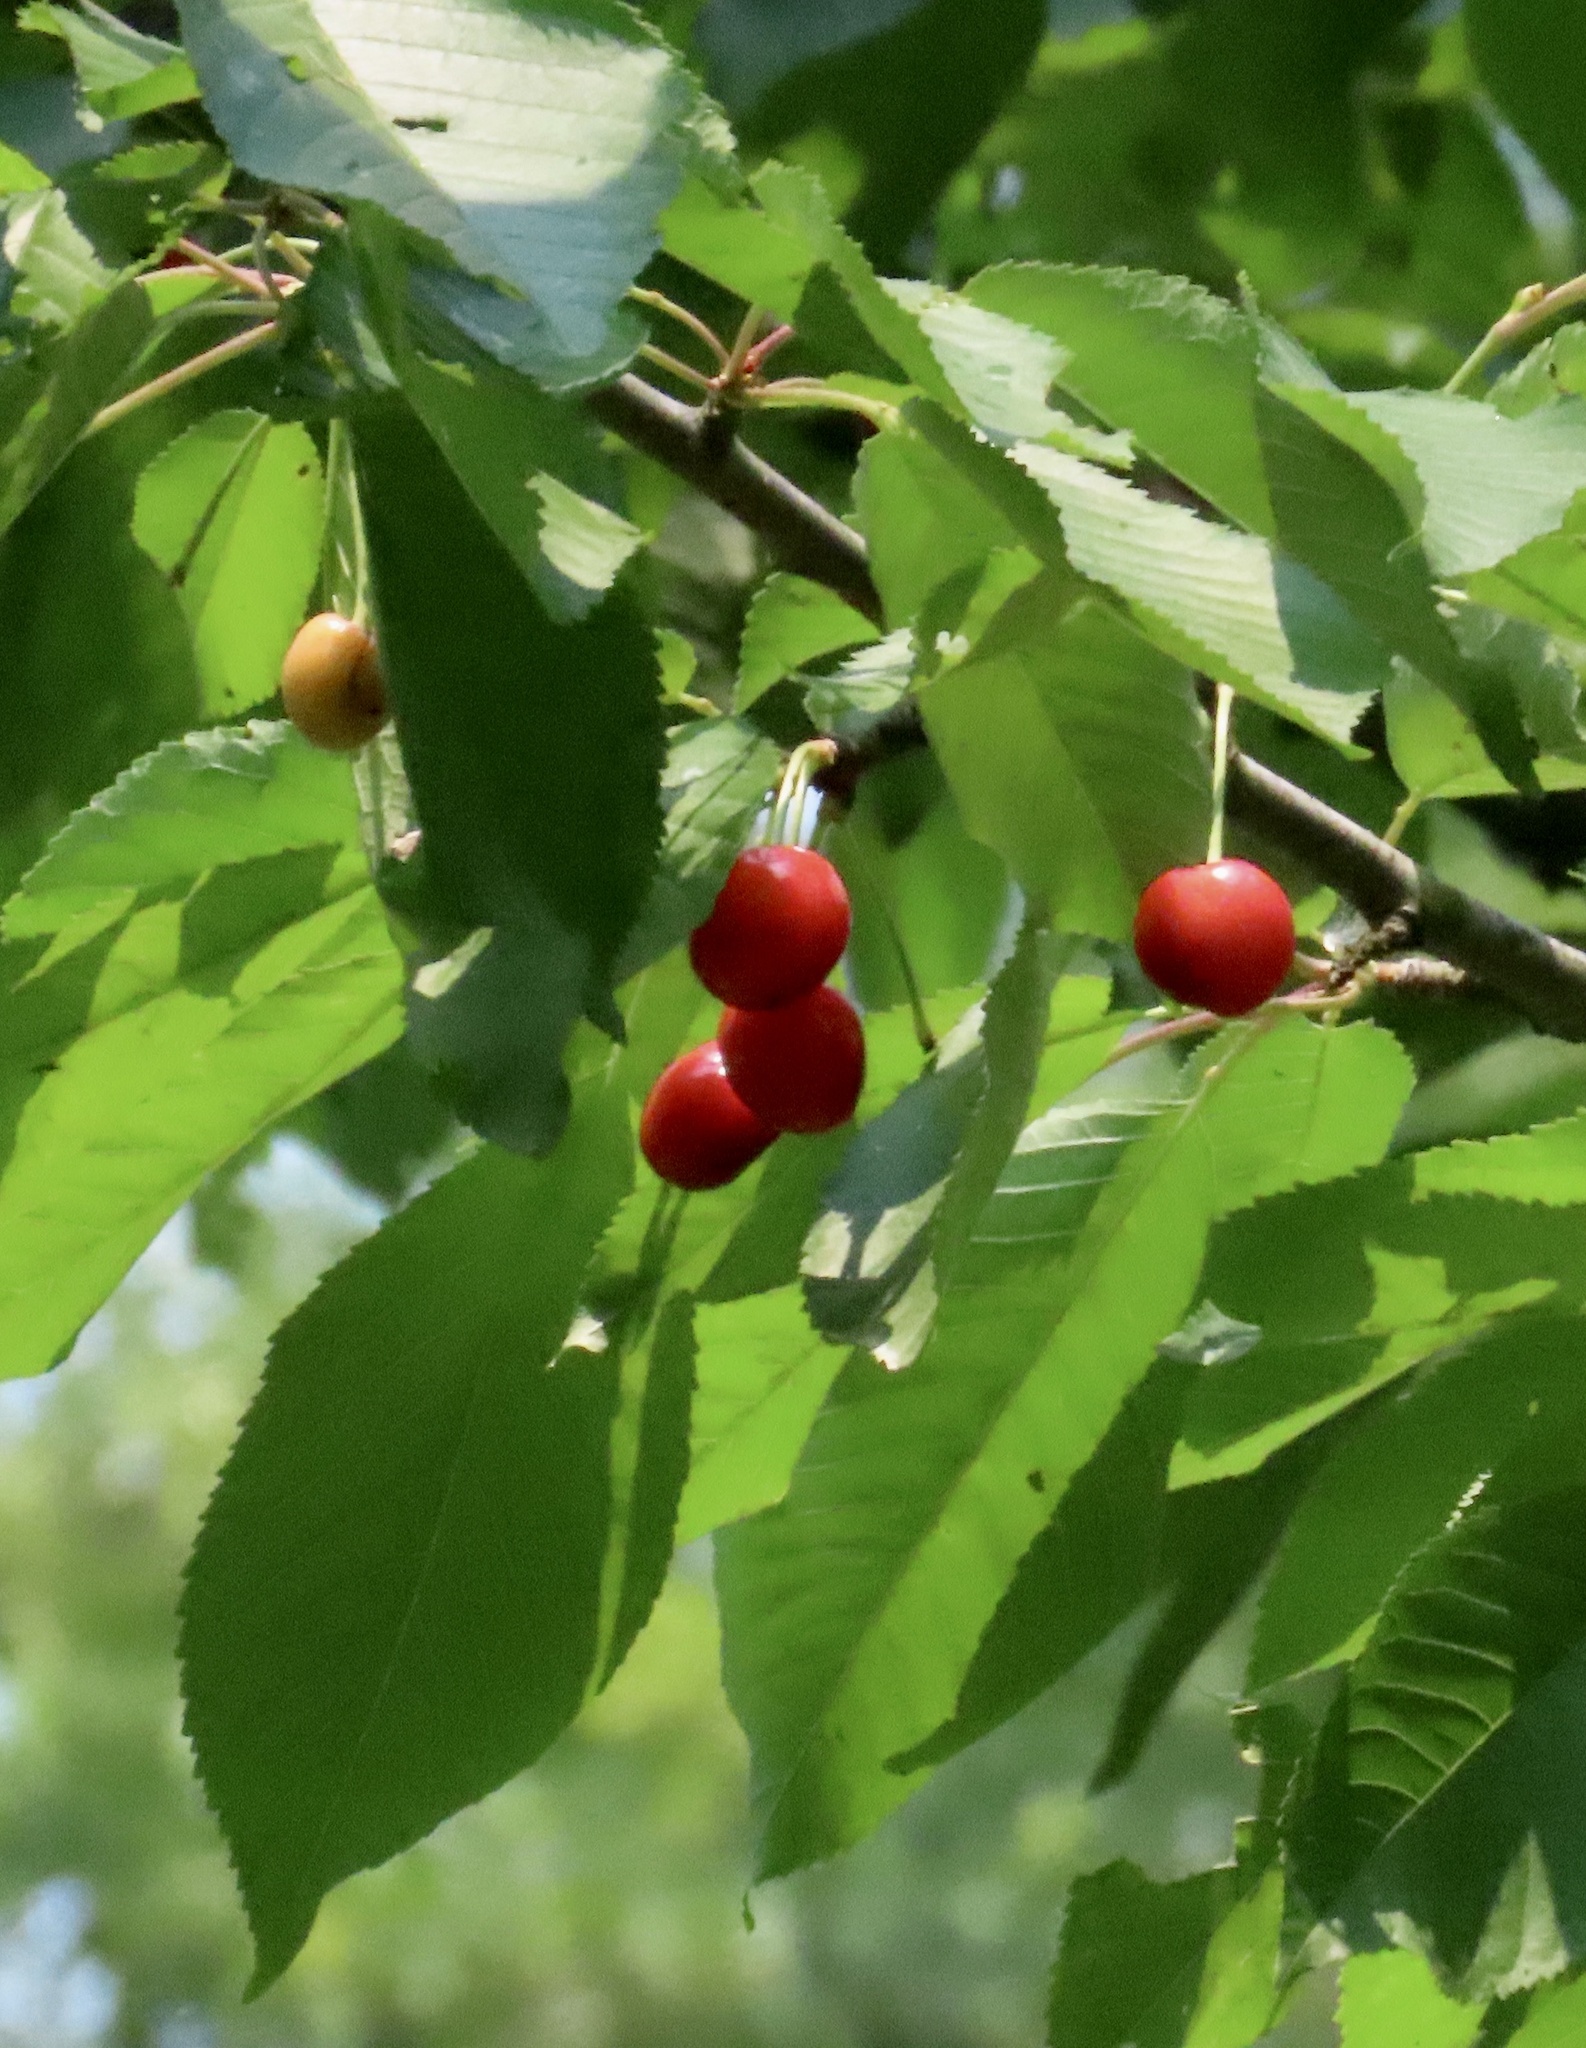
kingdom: Animalia
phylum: Chordata
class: Aves
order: Passeriformes
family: Turdidae
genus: Turdus
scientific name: Turdus migratorius
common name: American robin
